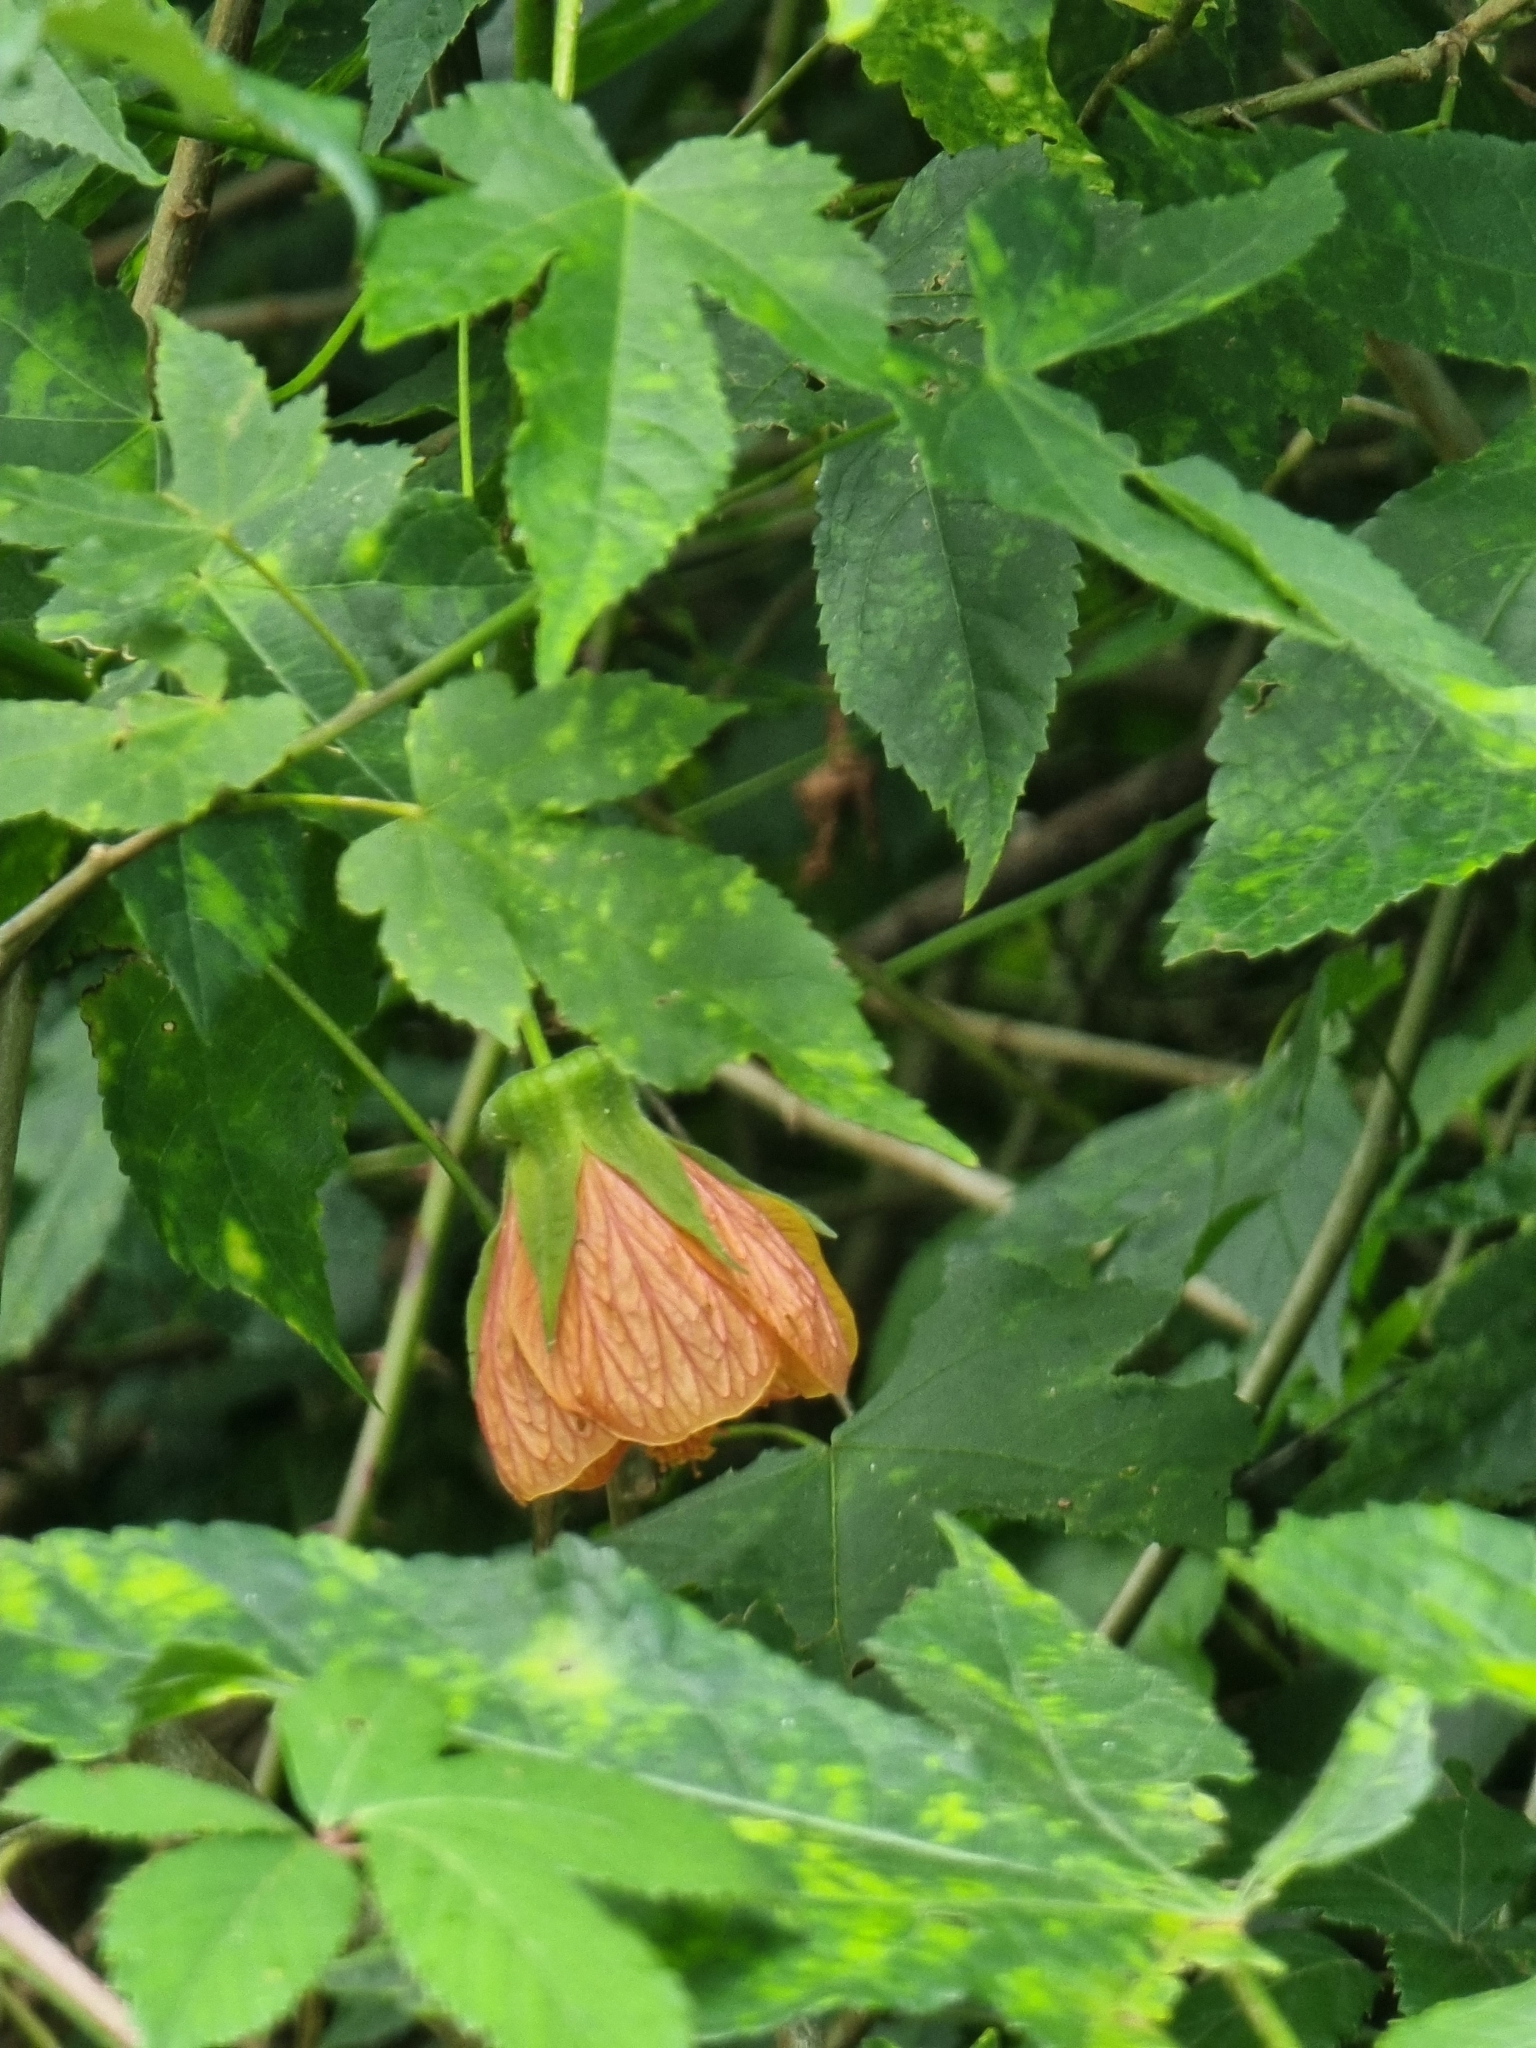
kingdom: Plantae
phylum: Tracheophyta
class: Magnoliopsida
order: Malvales
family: Malvaceae
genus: Callianthe
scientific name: Callianthe picta
